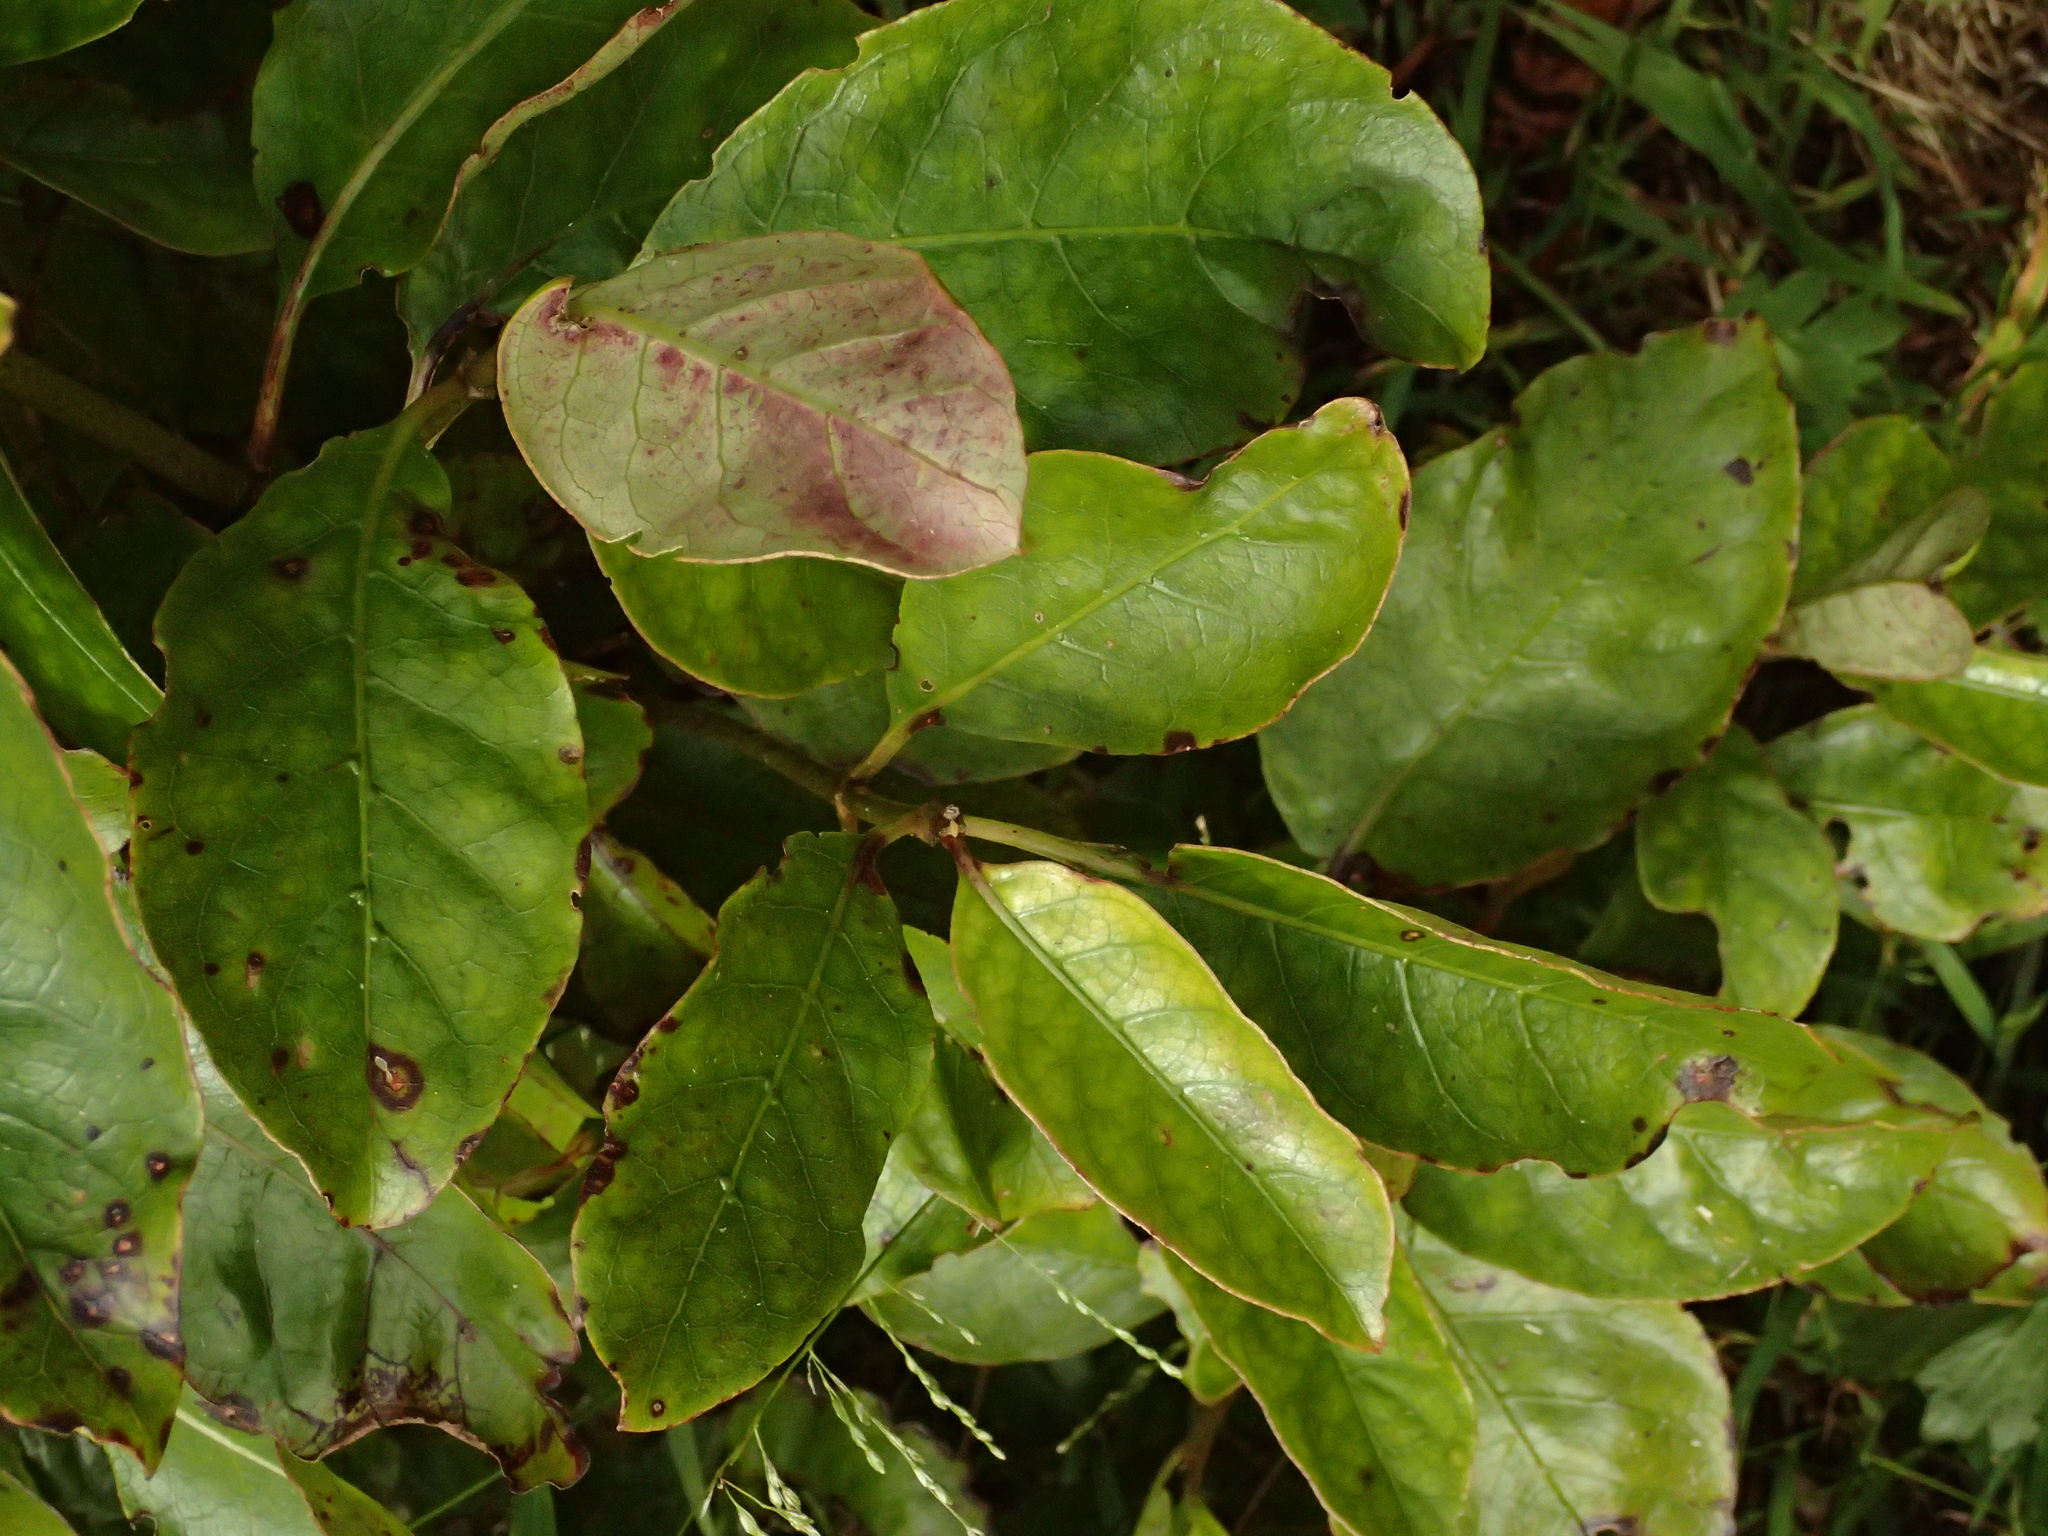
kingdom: Plantae
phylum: Tracheophyta
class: Magnoliopsida
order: Gentianales
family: Rubiaceae
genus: Coprosma
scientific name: Coprosma autumnalis
